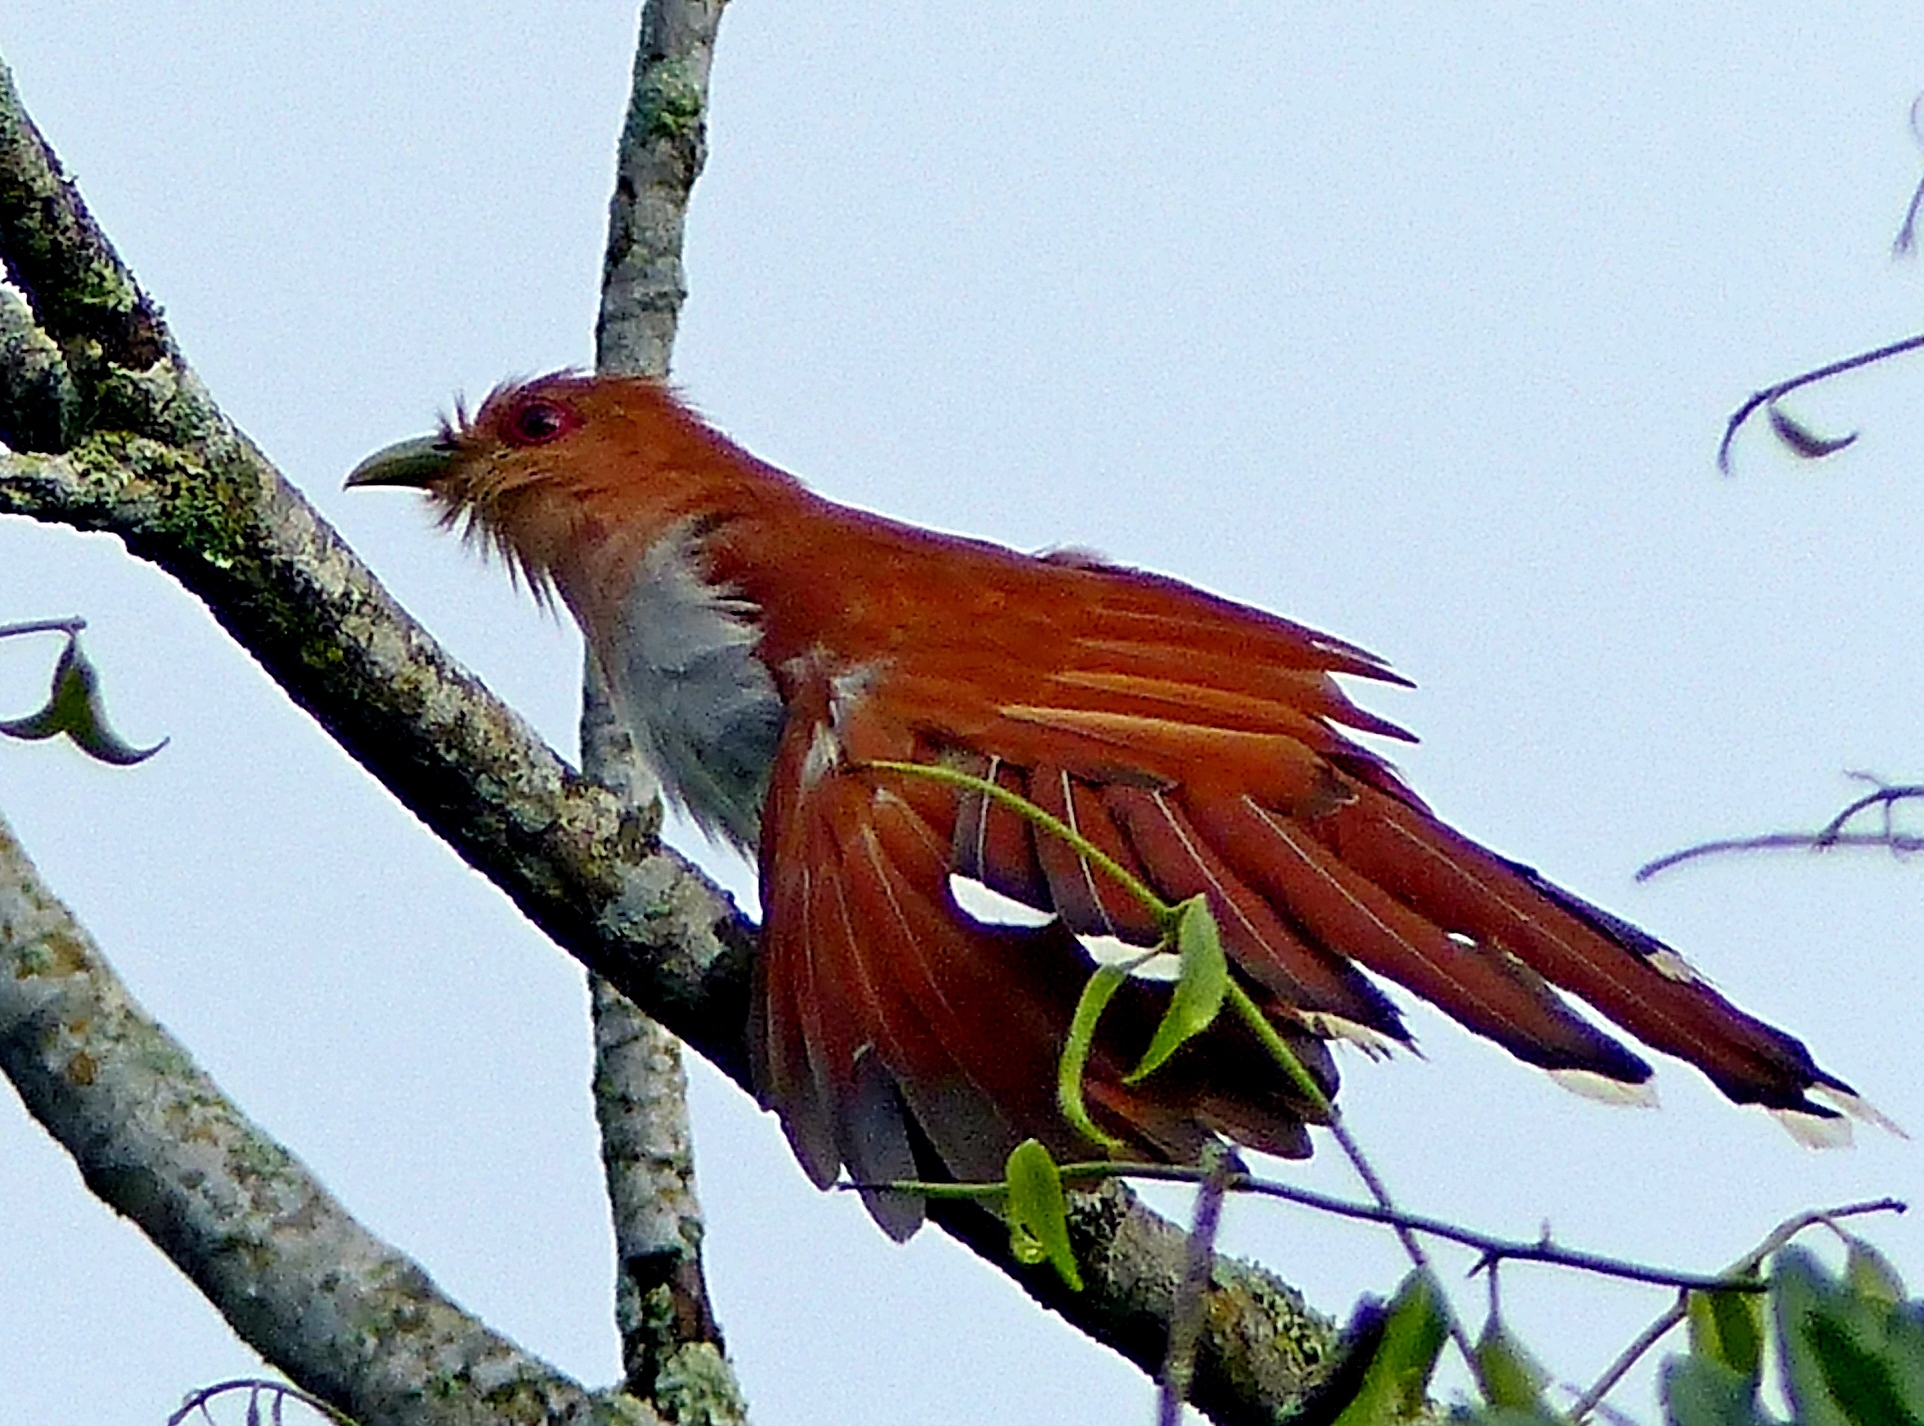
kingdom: Animalia
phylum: Chordata
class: Aves
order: Cuculiformes
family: Cuculidae
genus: Piaya
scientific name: Piaya cayana
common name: Squirrel cuckoo
